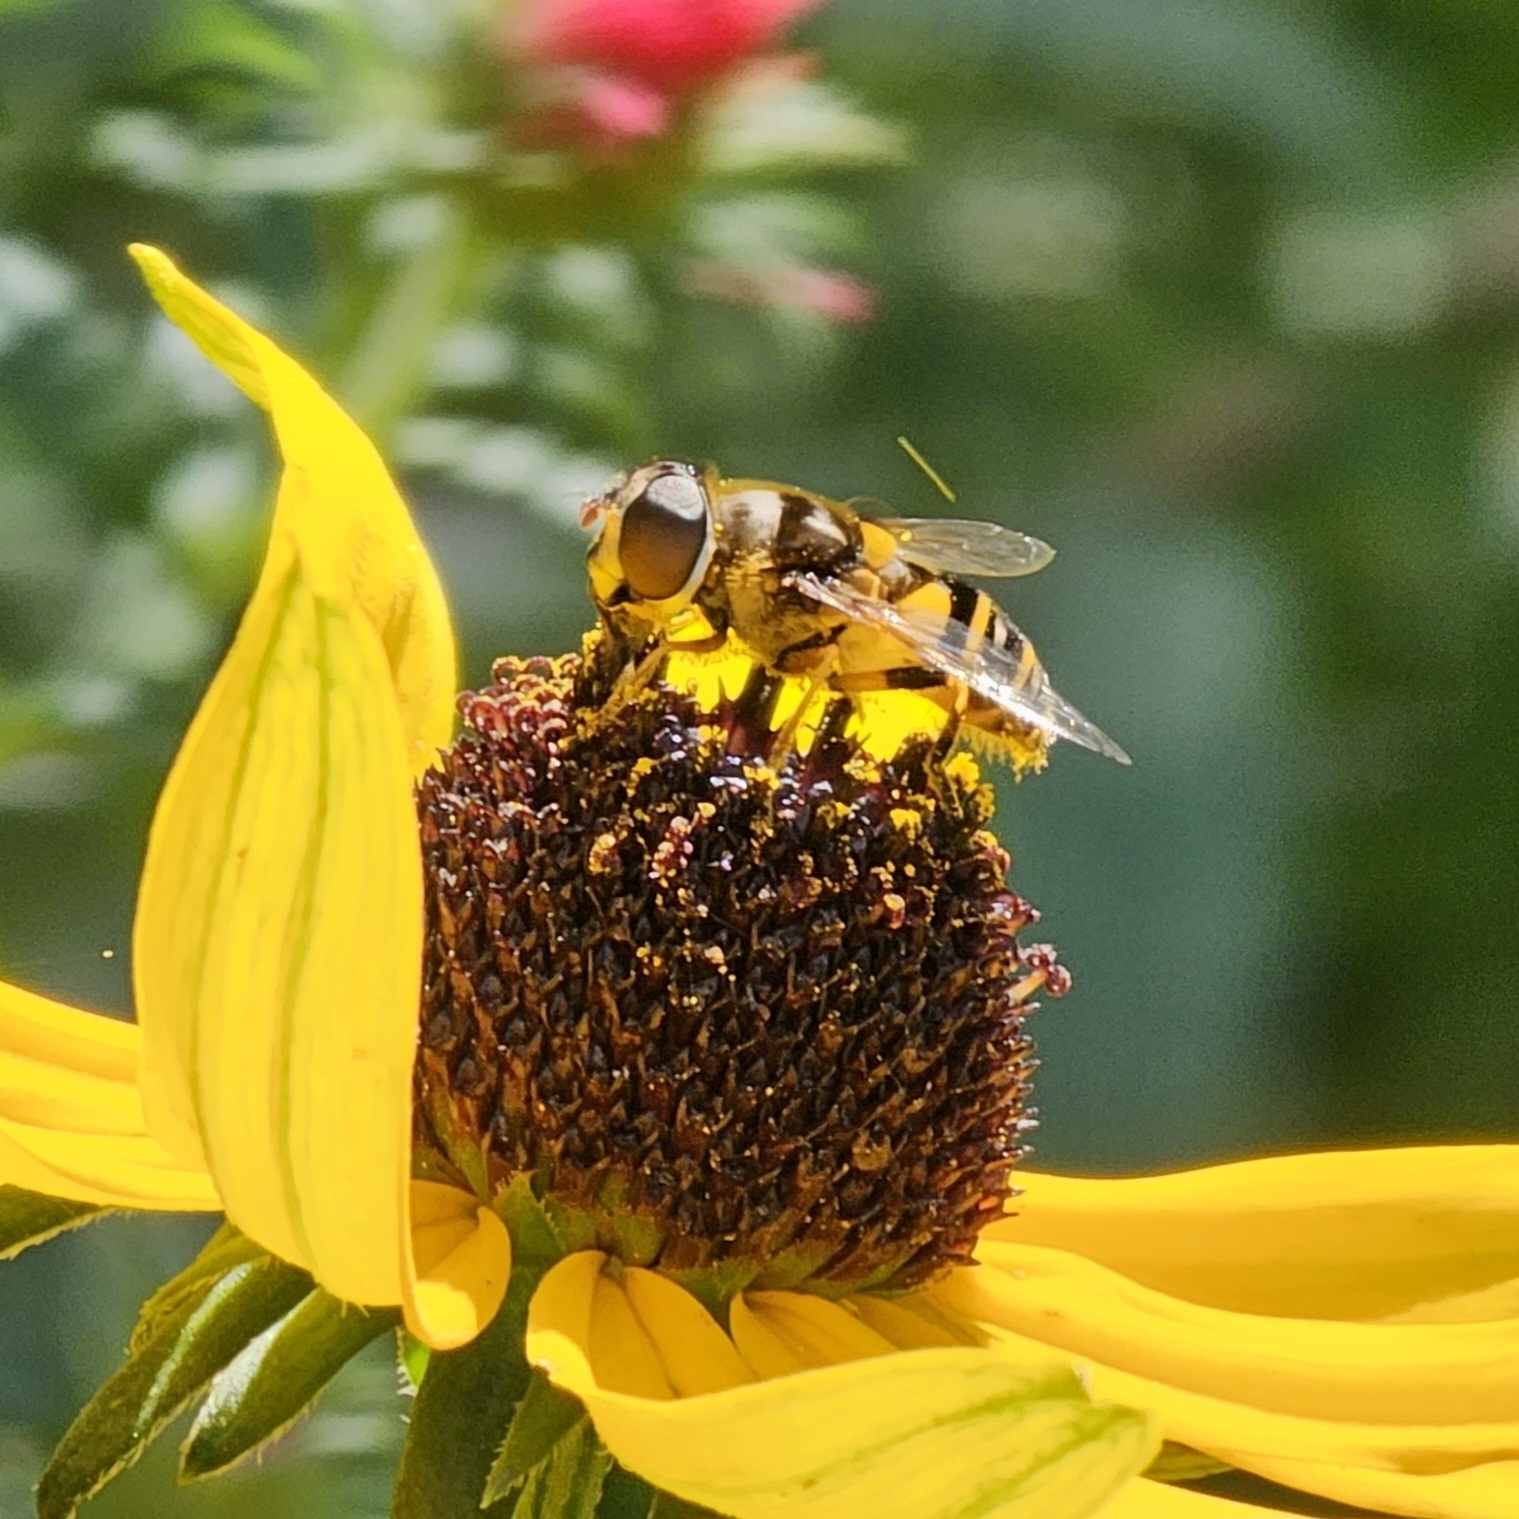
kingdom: Animalia
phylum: Arthropoda
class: Insecta
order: Diptera
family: Syrphidae
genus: Eristalis
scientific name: Eristalis transversa
